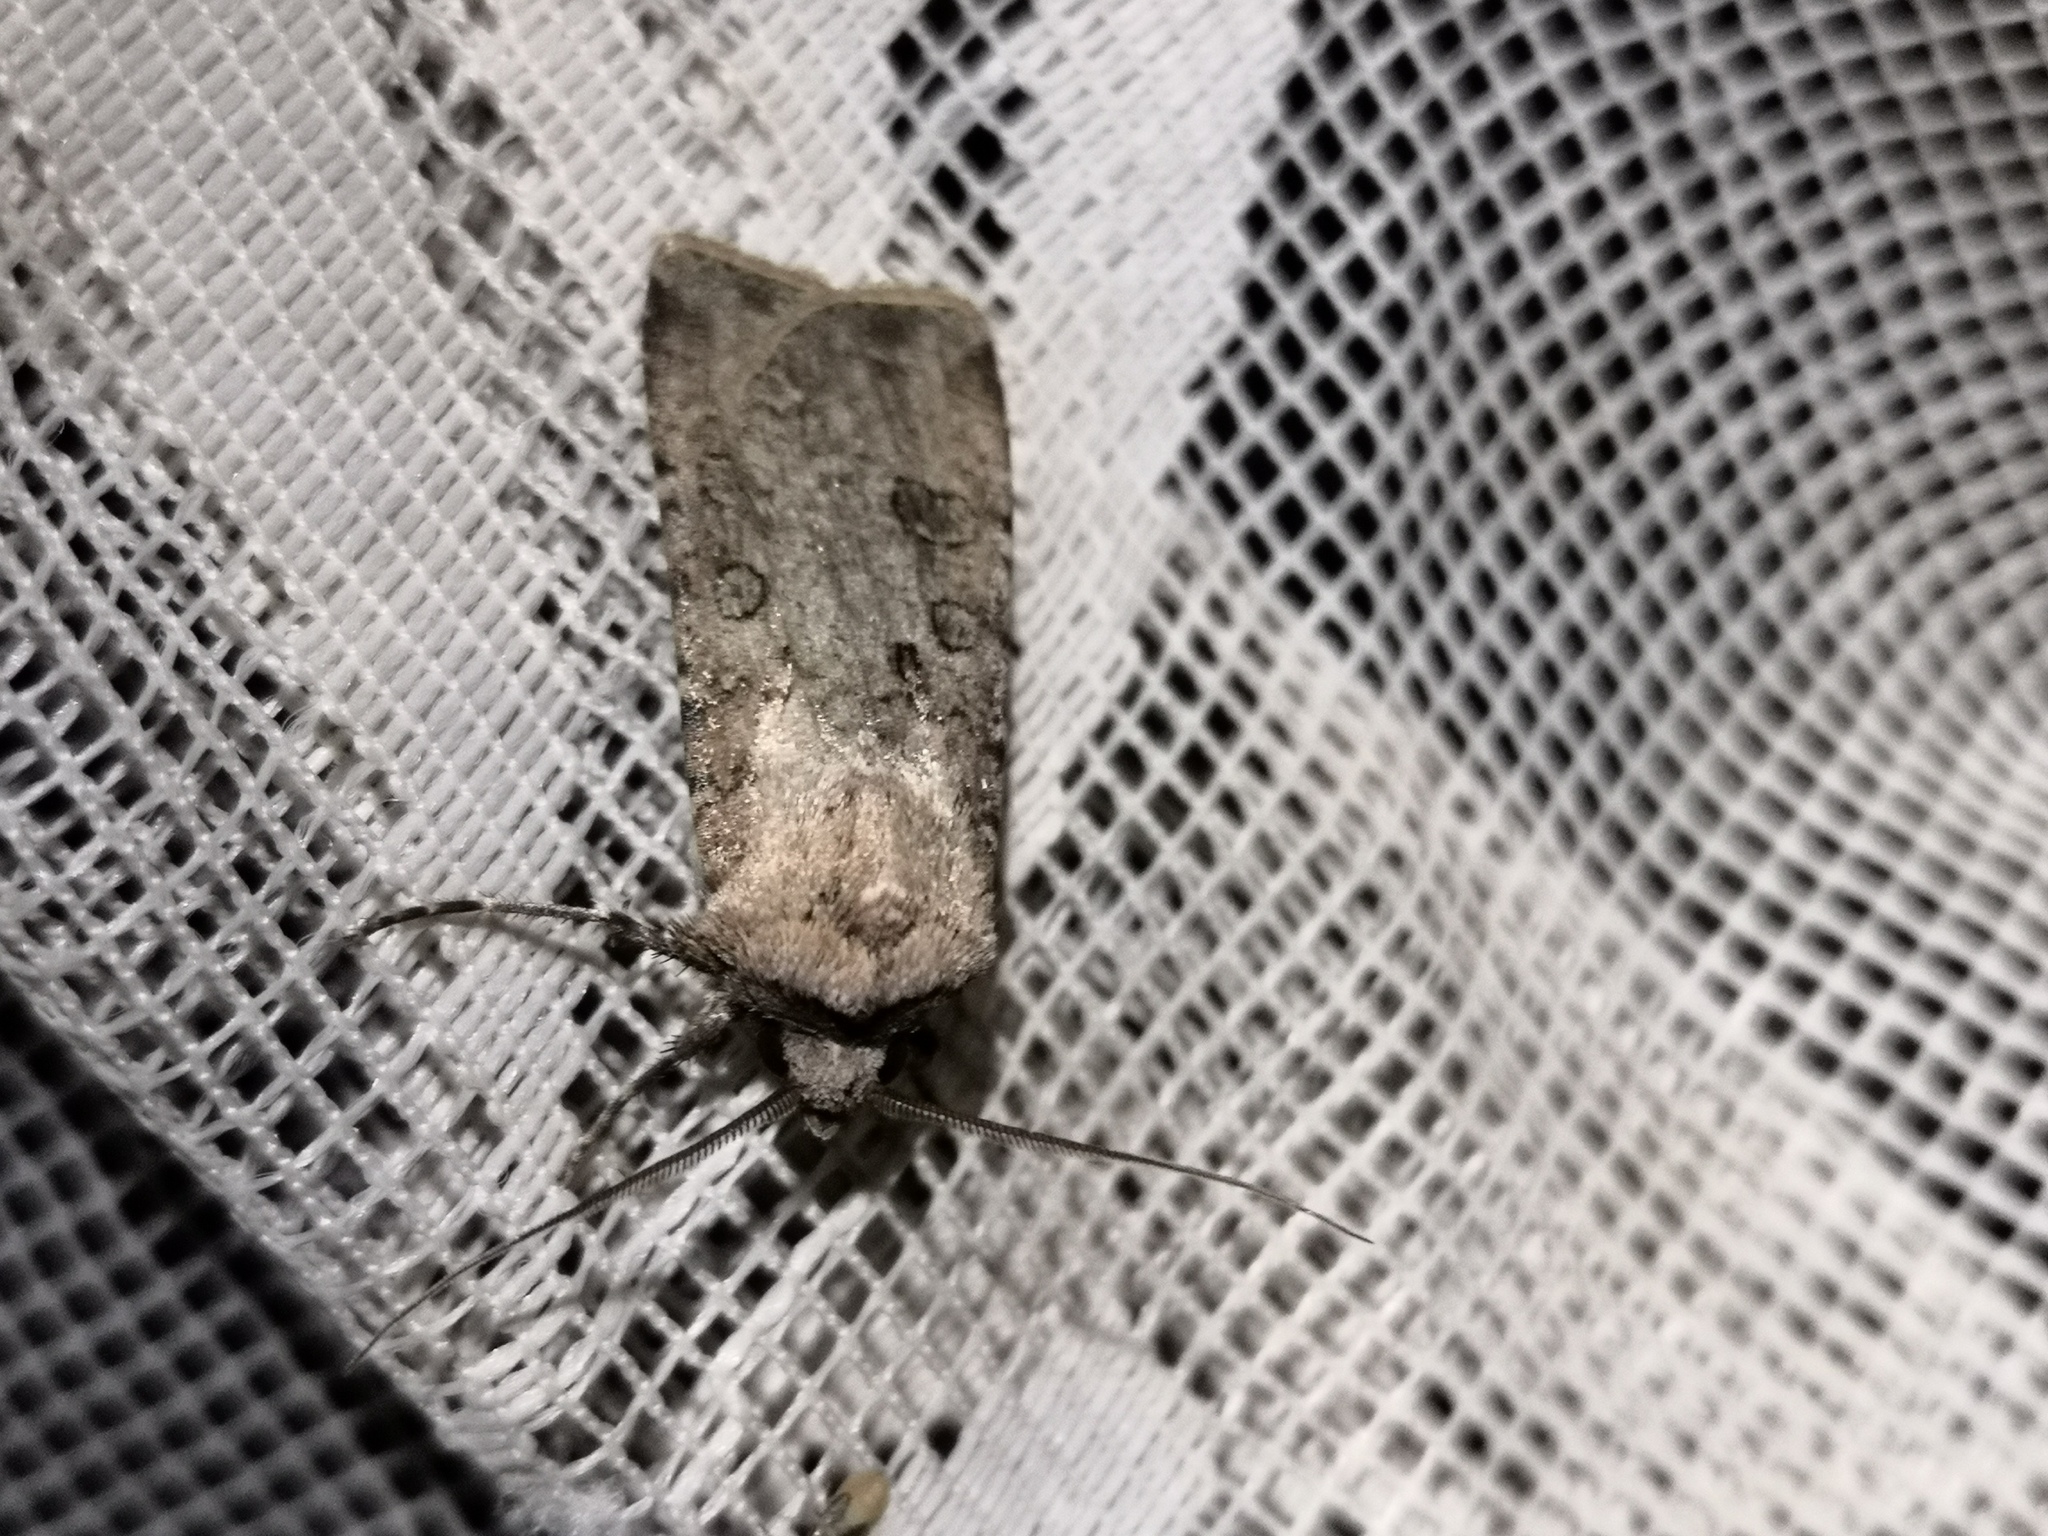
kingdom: Animalia
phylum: Arthropoda
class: Insecta
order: Lepidoptera
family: Noctuidae
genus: Agrotis
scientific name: Agrotis segetum
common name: Turnip moth
